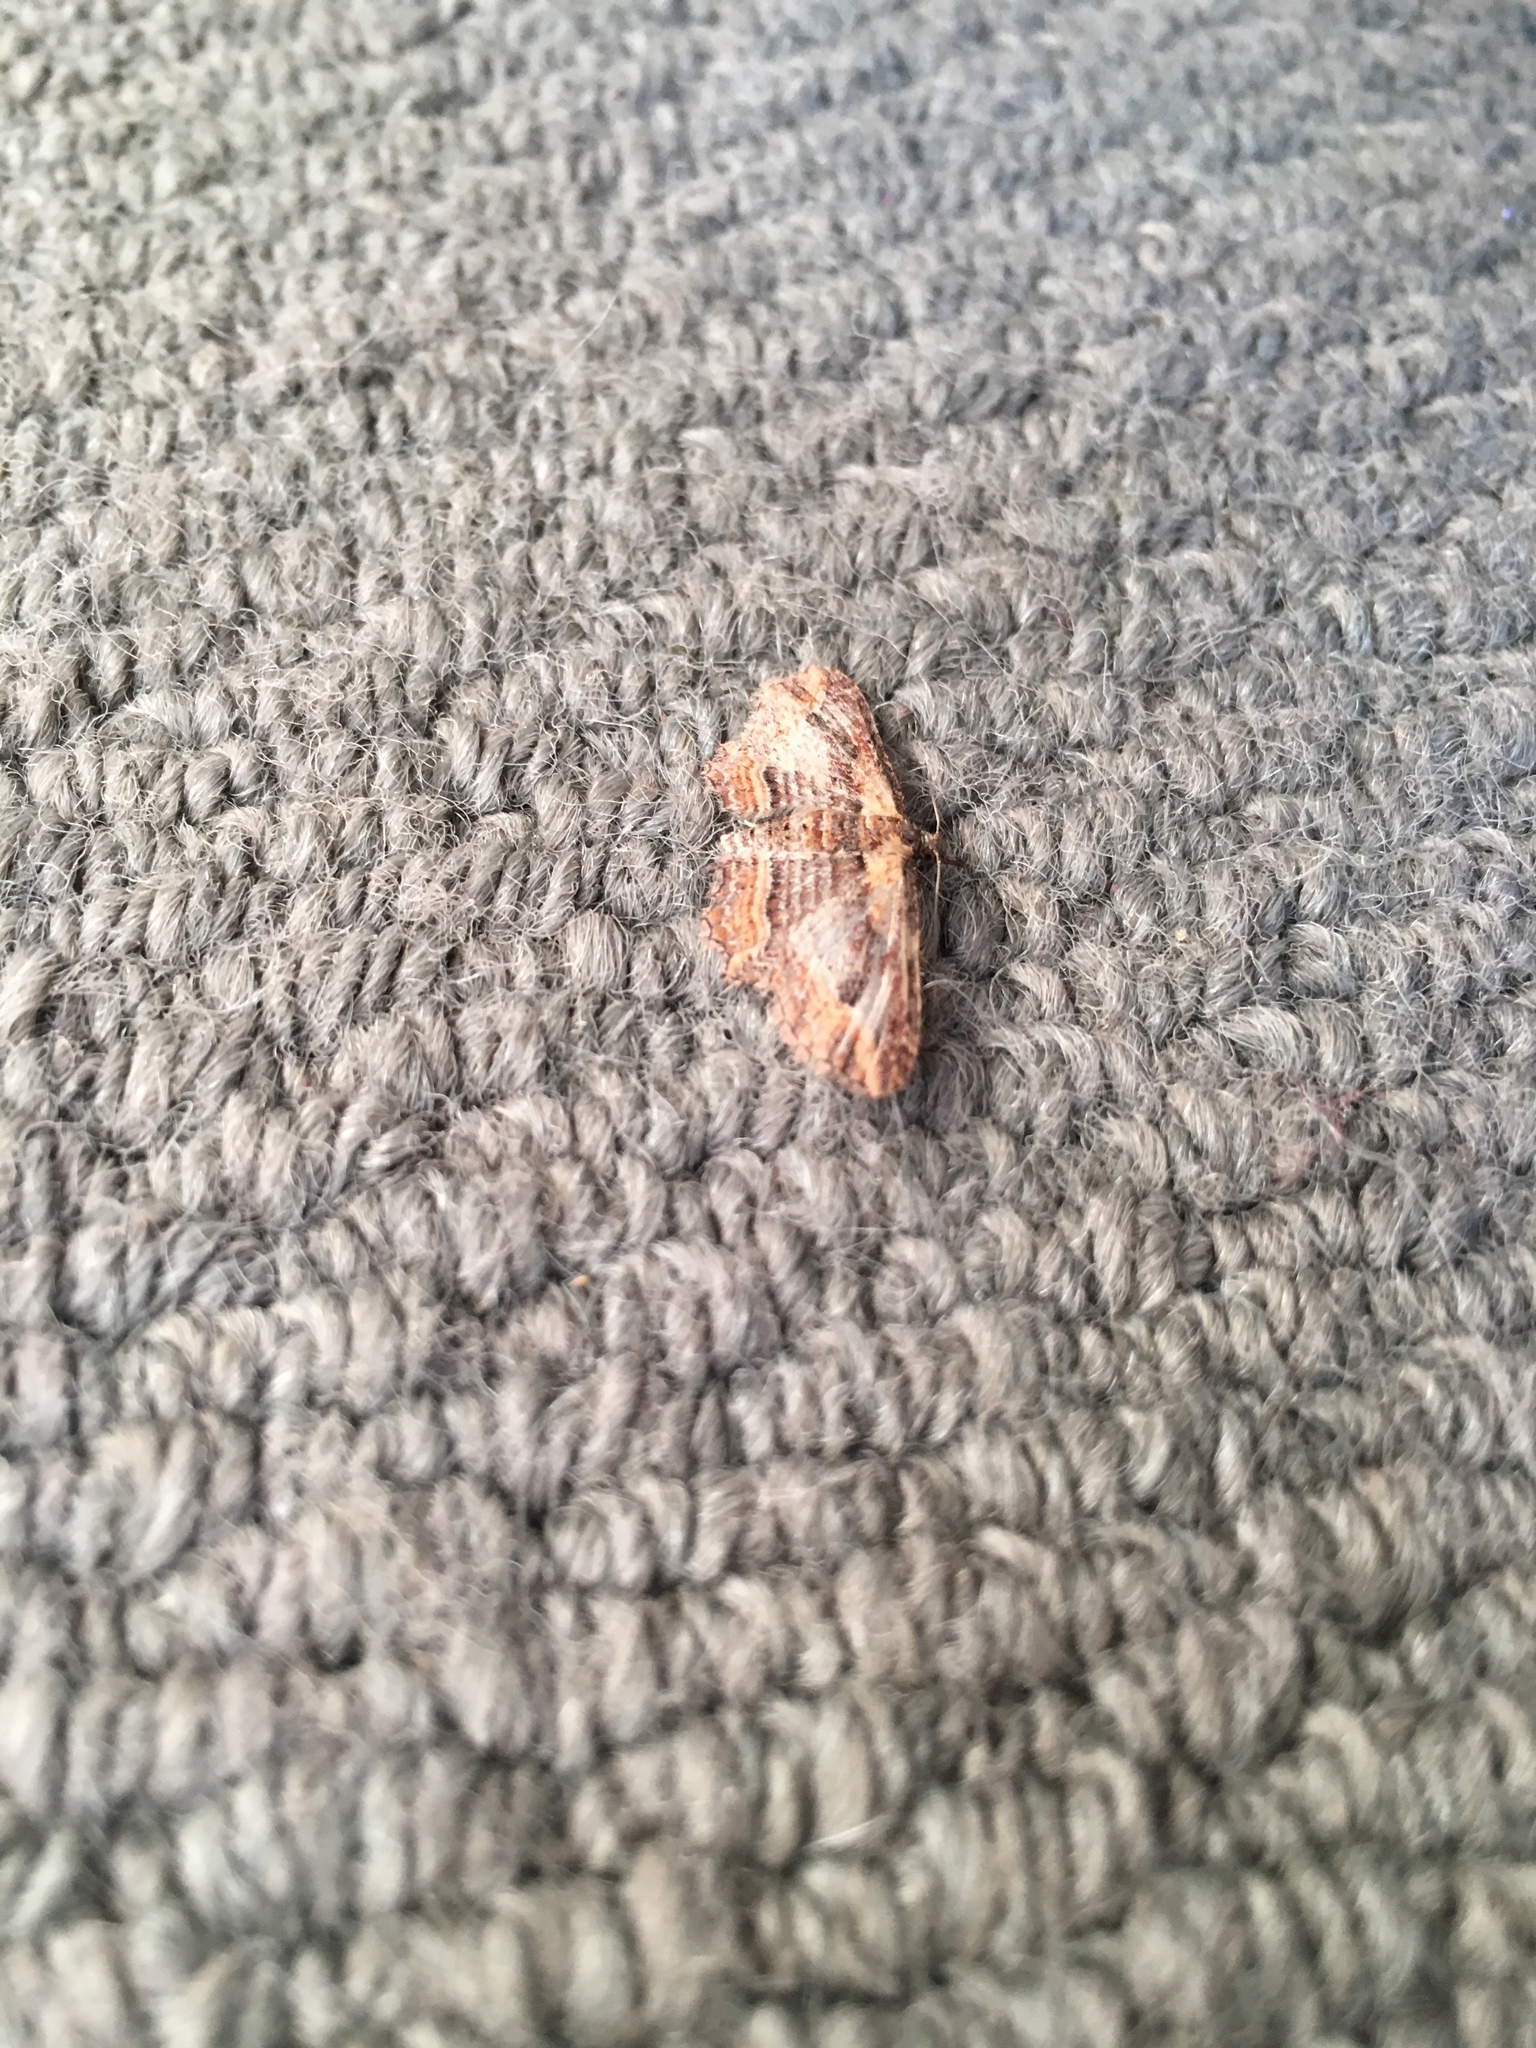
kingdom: Animalia
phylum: Arthropoda
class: Insecta
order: Lepidoptera
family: Geometridae
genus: Chloroclystis
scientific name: Chloroclystis filata
